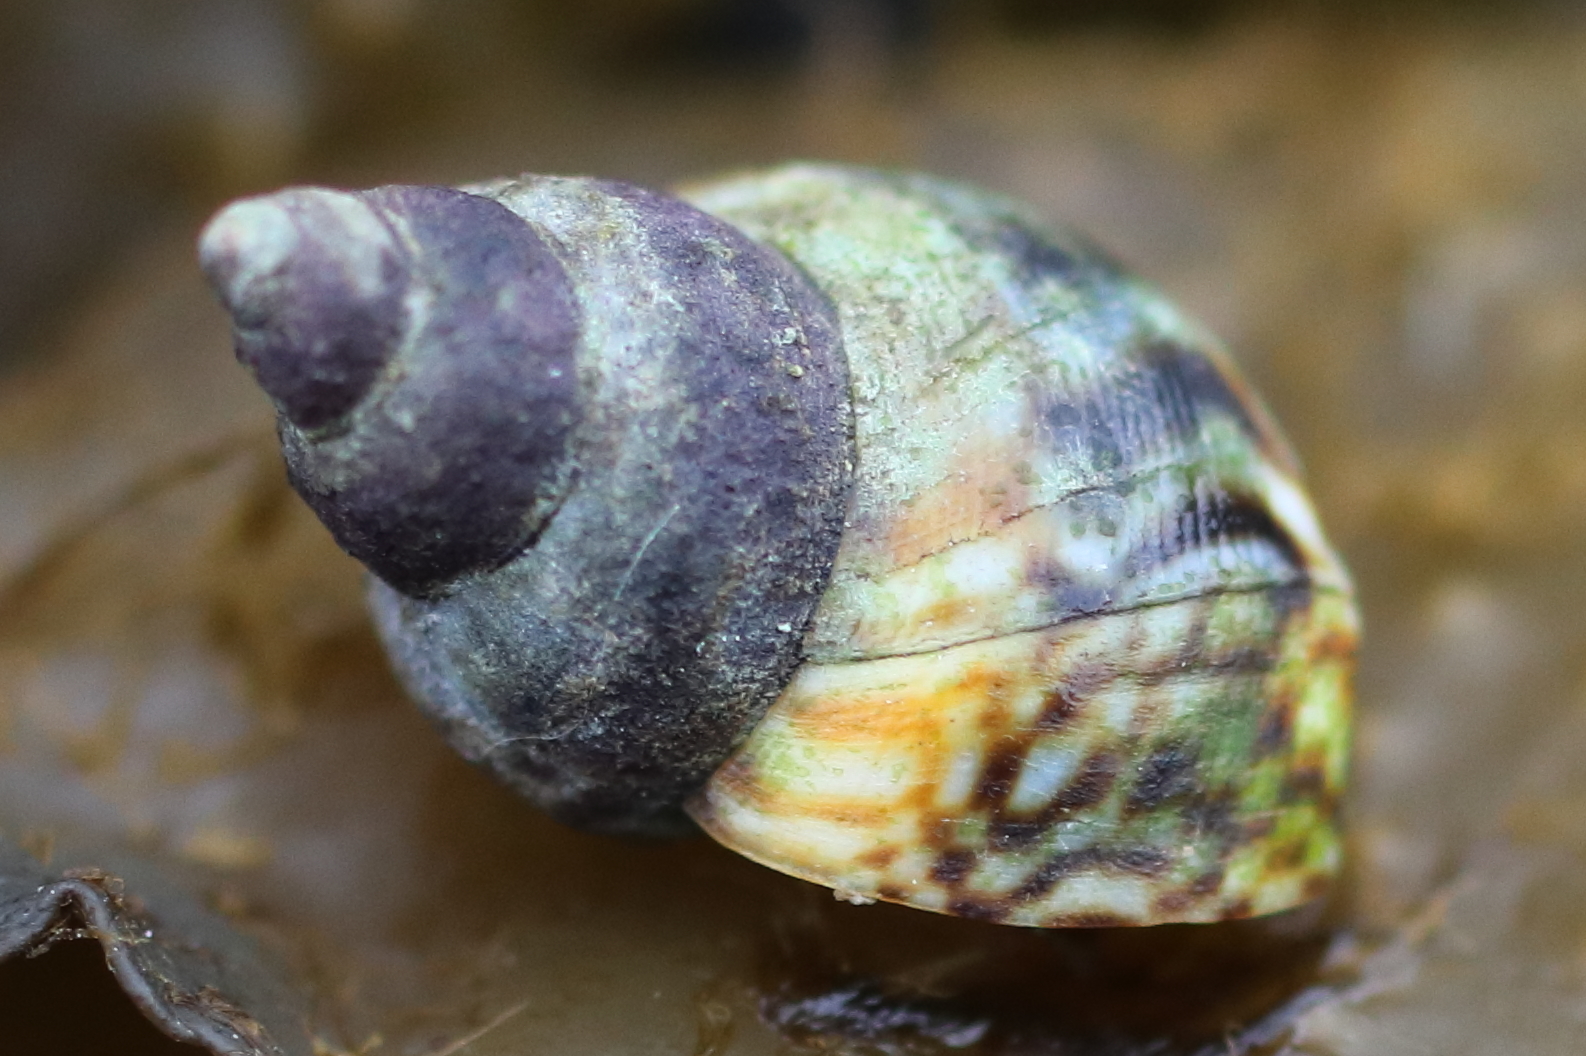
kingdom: Animalia
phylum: Mollusca
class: Gastropoda
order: Littorinimorpha
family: Littorinidae
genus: Littorina
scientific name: Littorina scutulata
